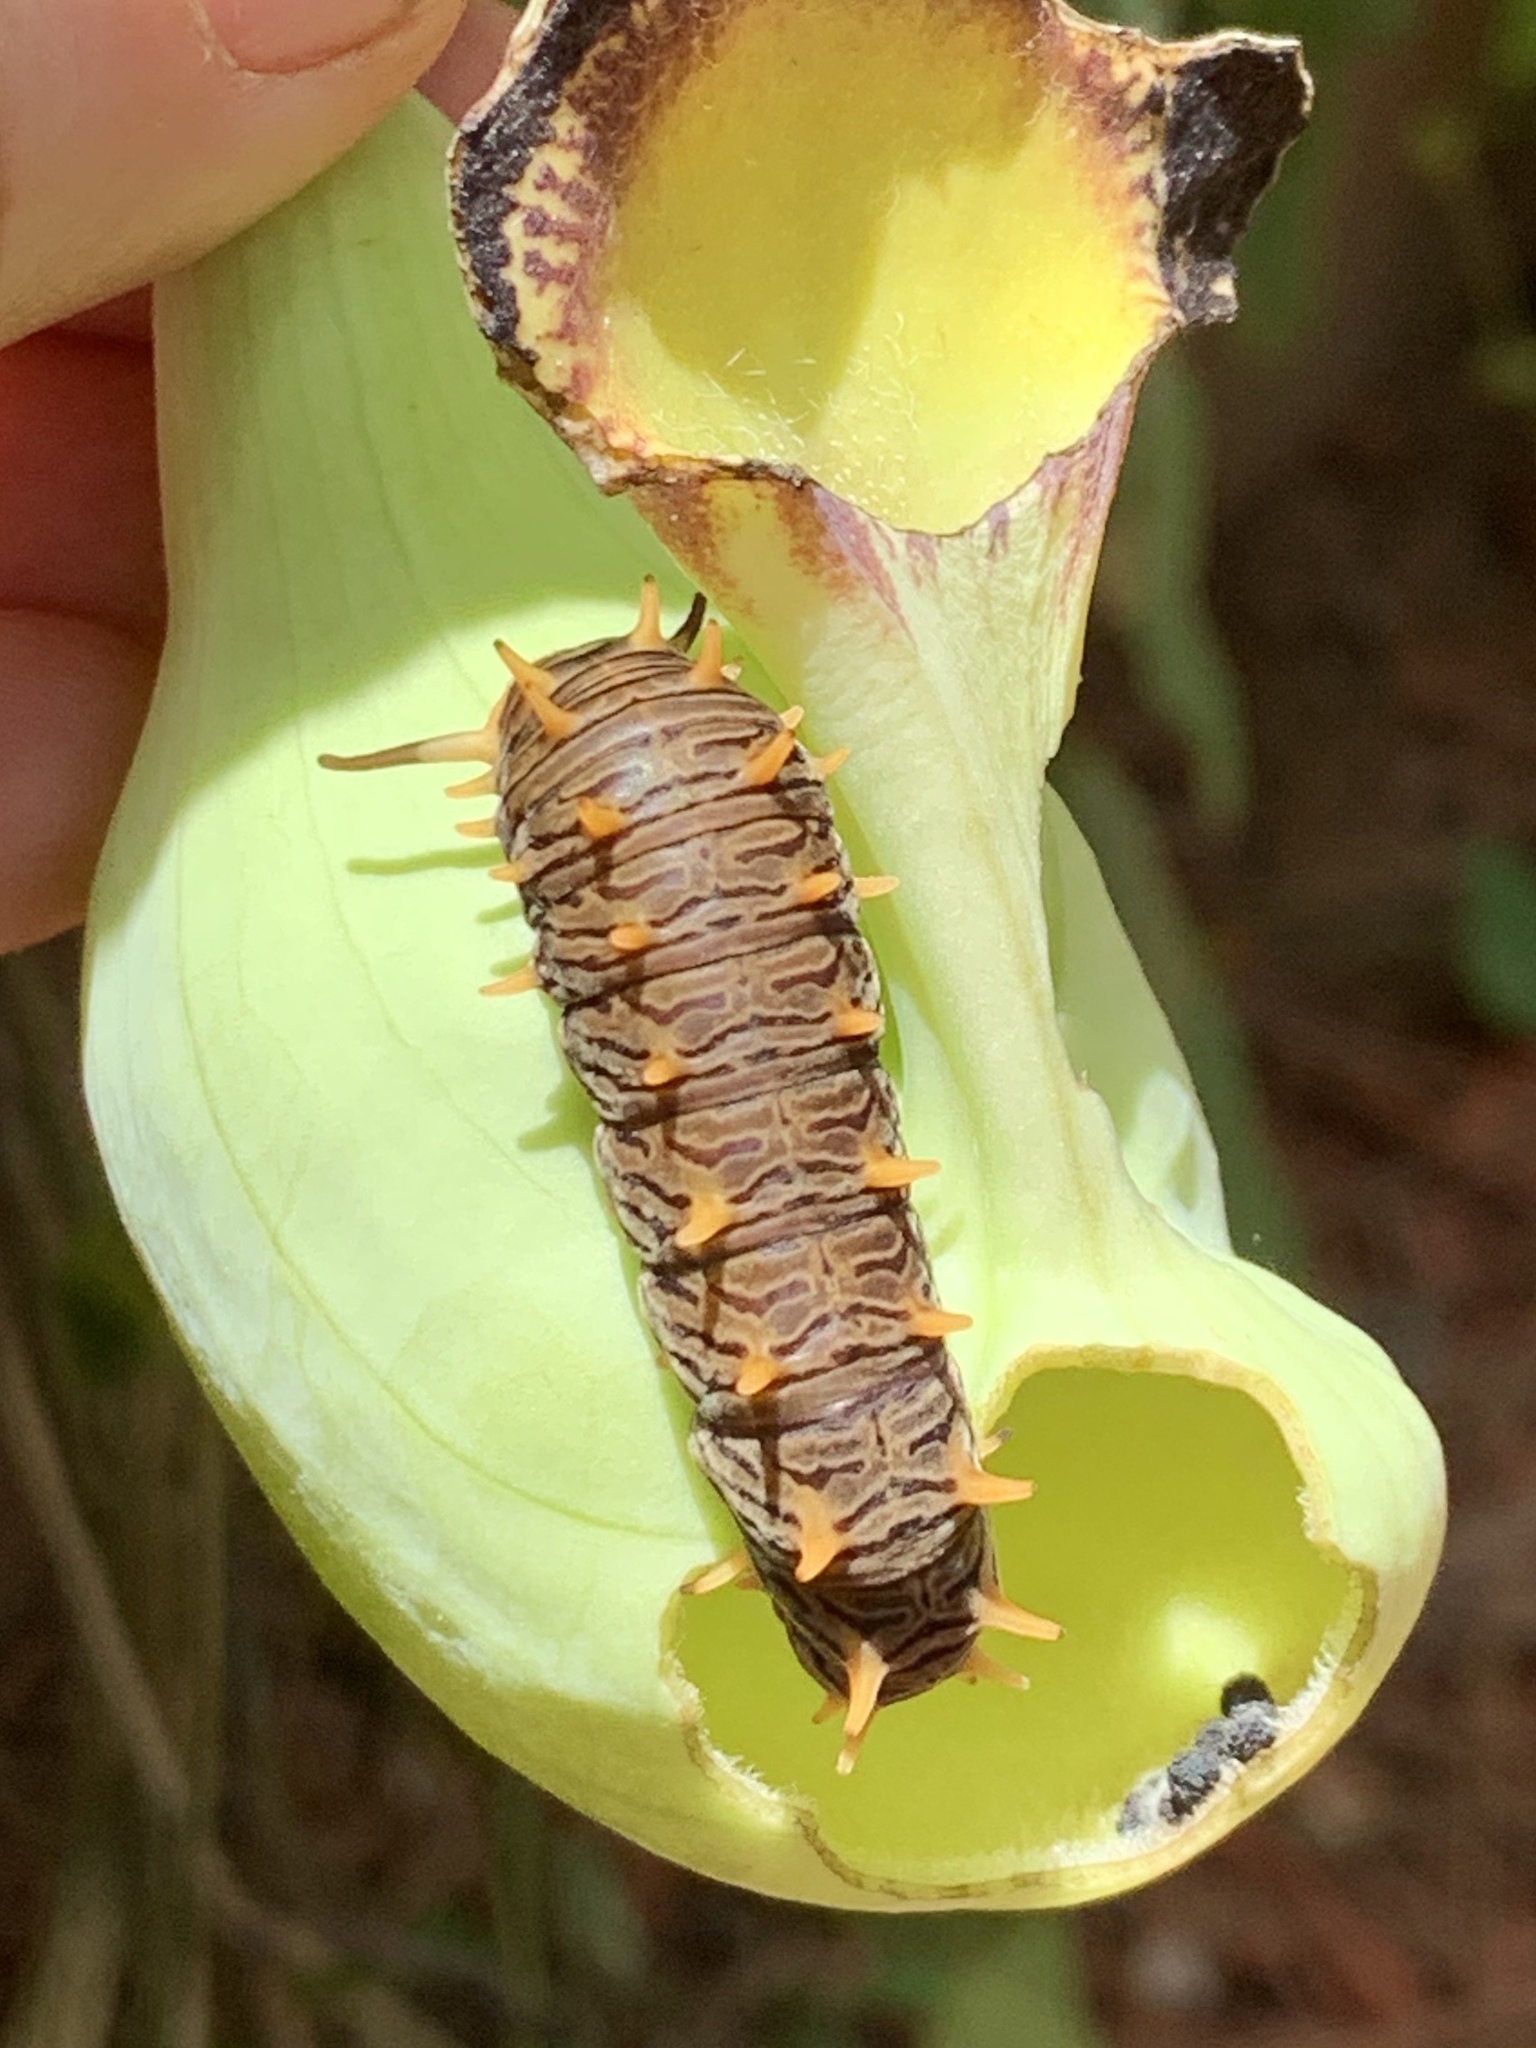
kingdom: Animalia
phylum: Arthropoda
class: Insecta
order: Lepidoptera
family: Papilionidae
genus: Battus
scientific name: Battus polydamas
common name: Polydamas swallowtail
